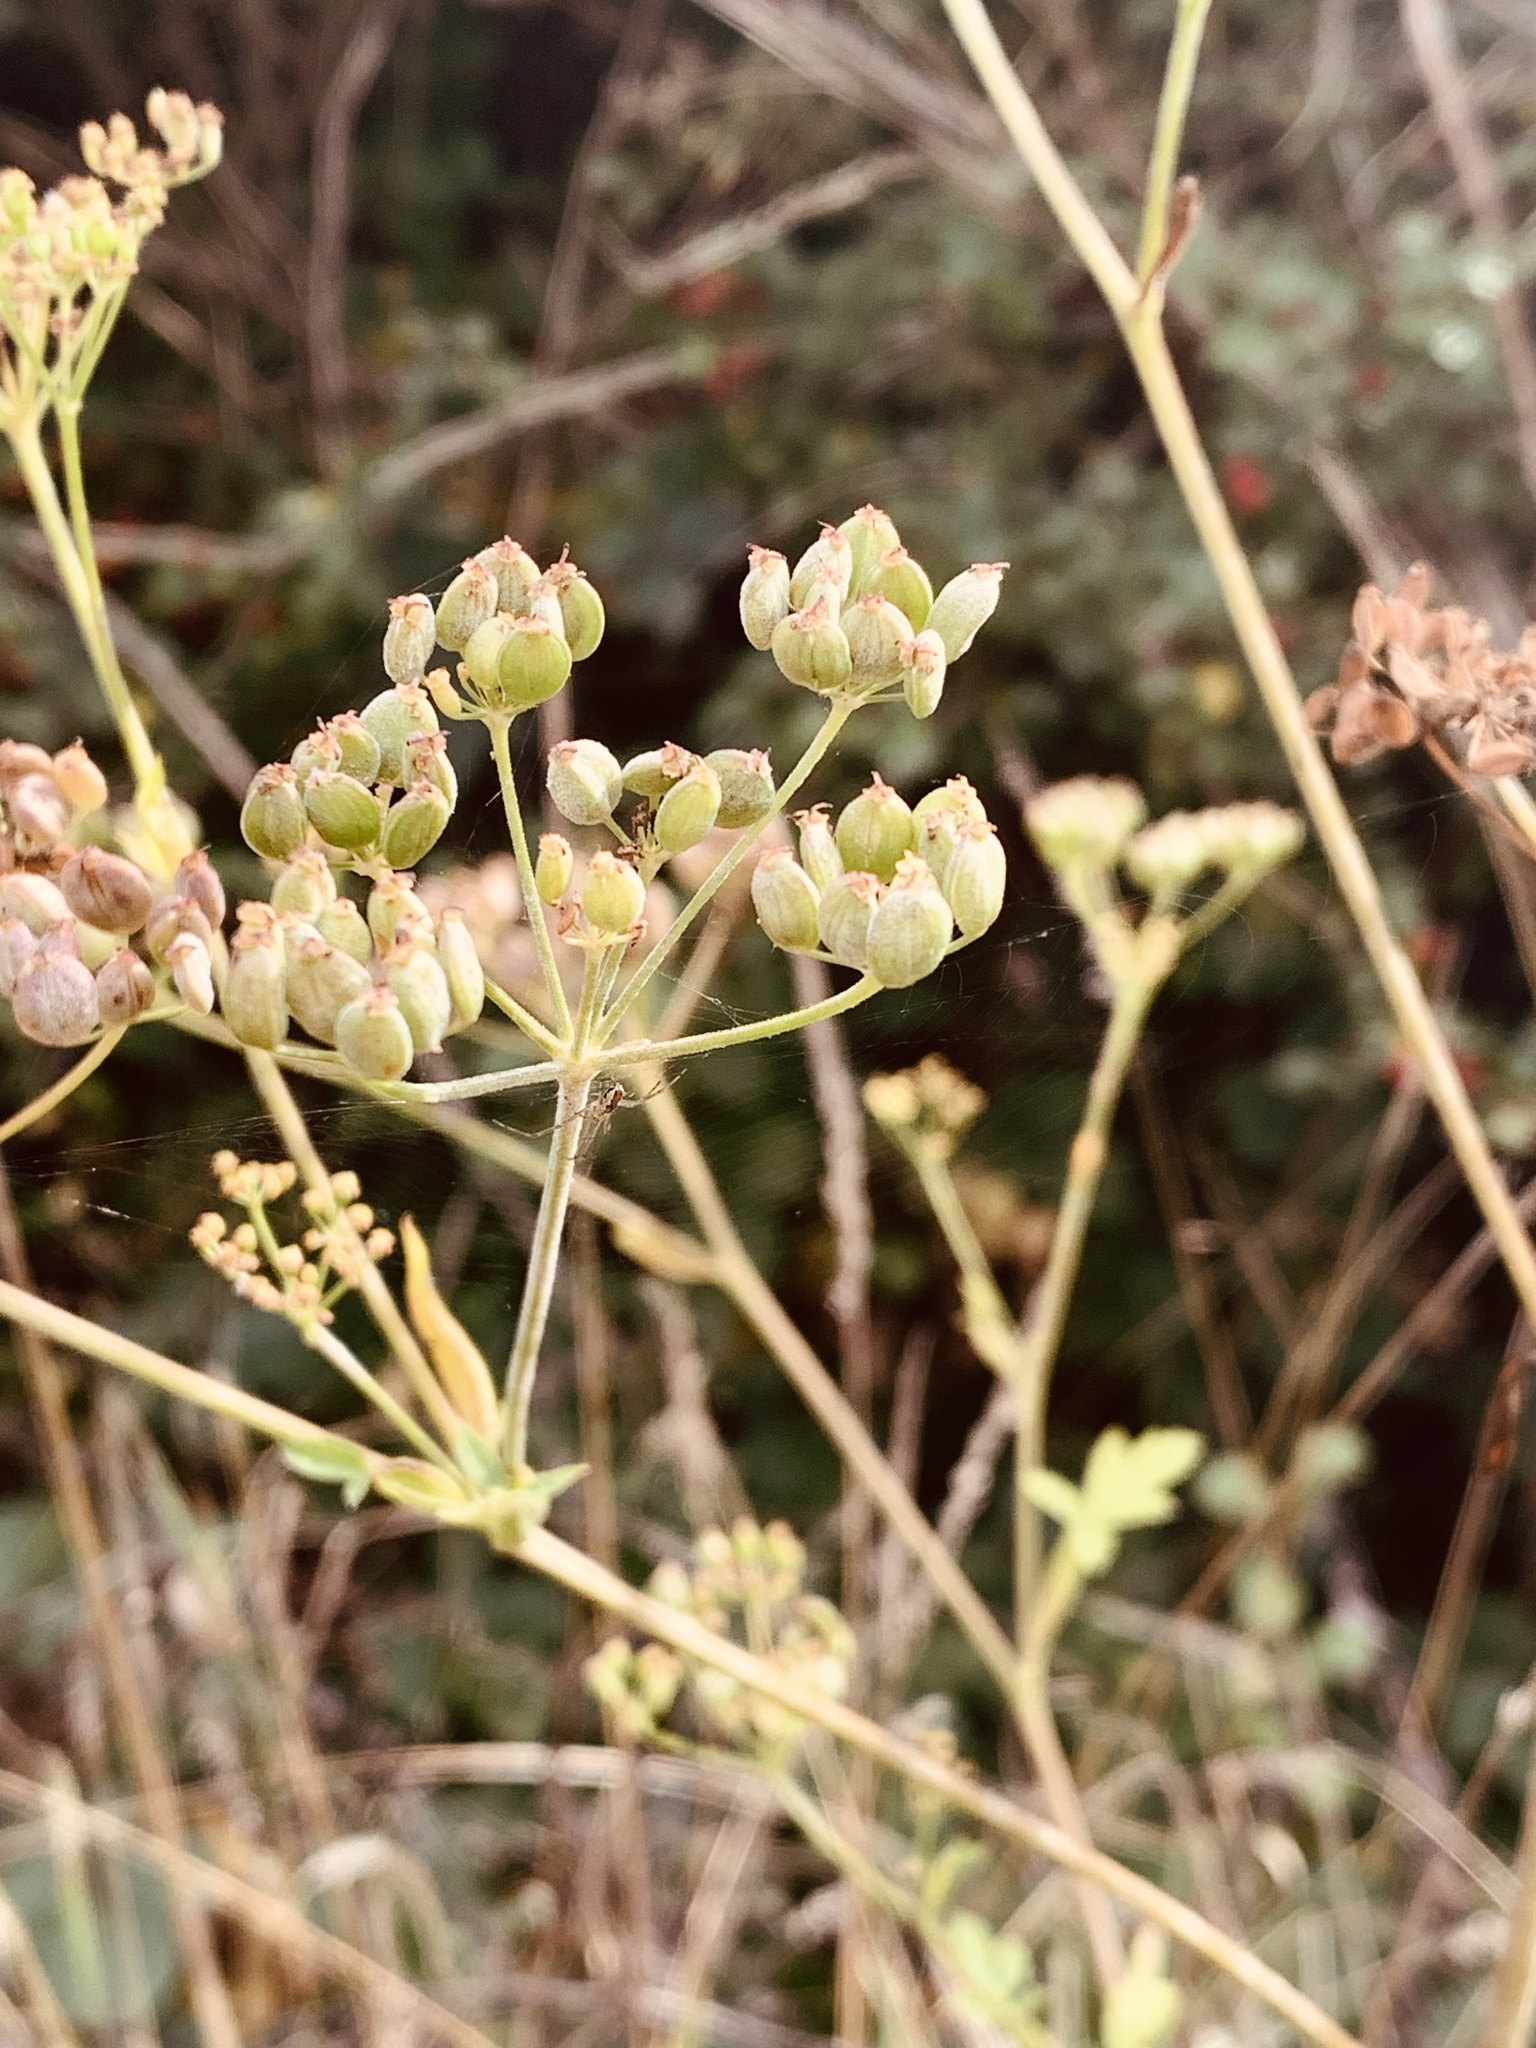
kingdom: Plantae
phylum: Tracheophyta
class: Magnoliopsida
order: Apiales
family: Apiaceae
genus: Pastinaca
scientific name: Pastinaca sativa
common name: Wild parsnip
